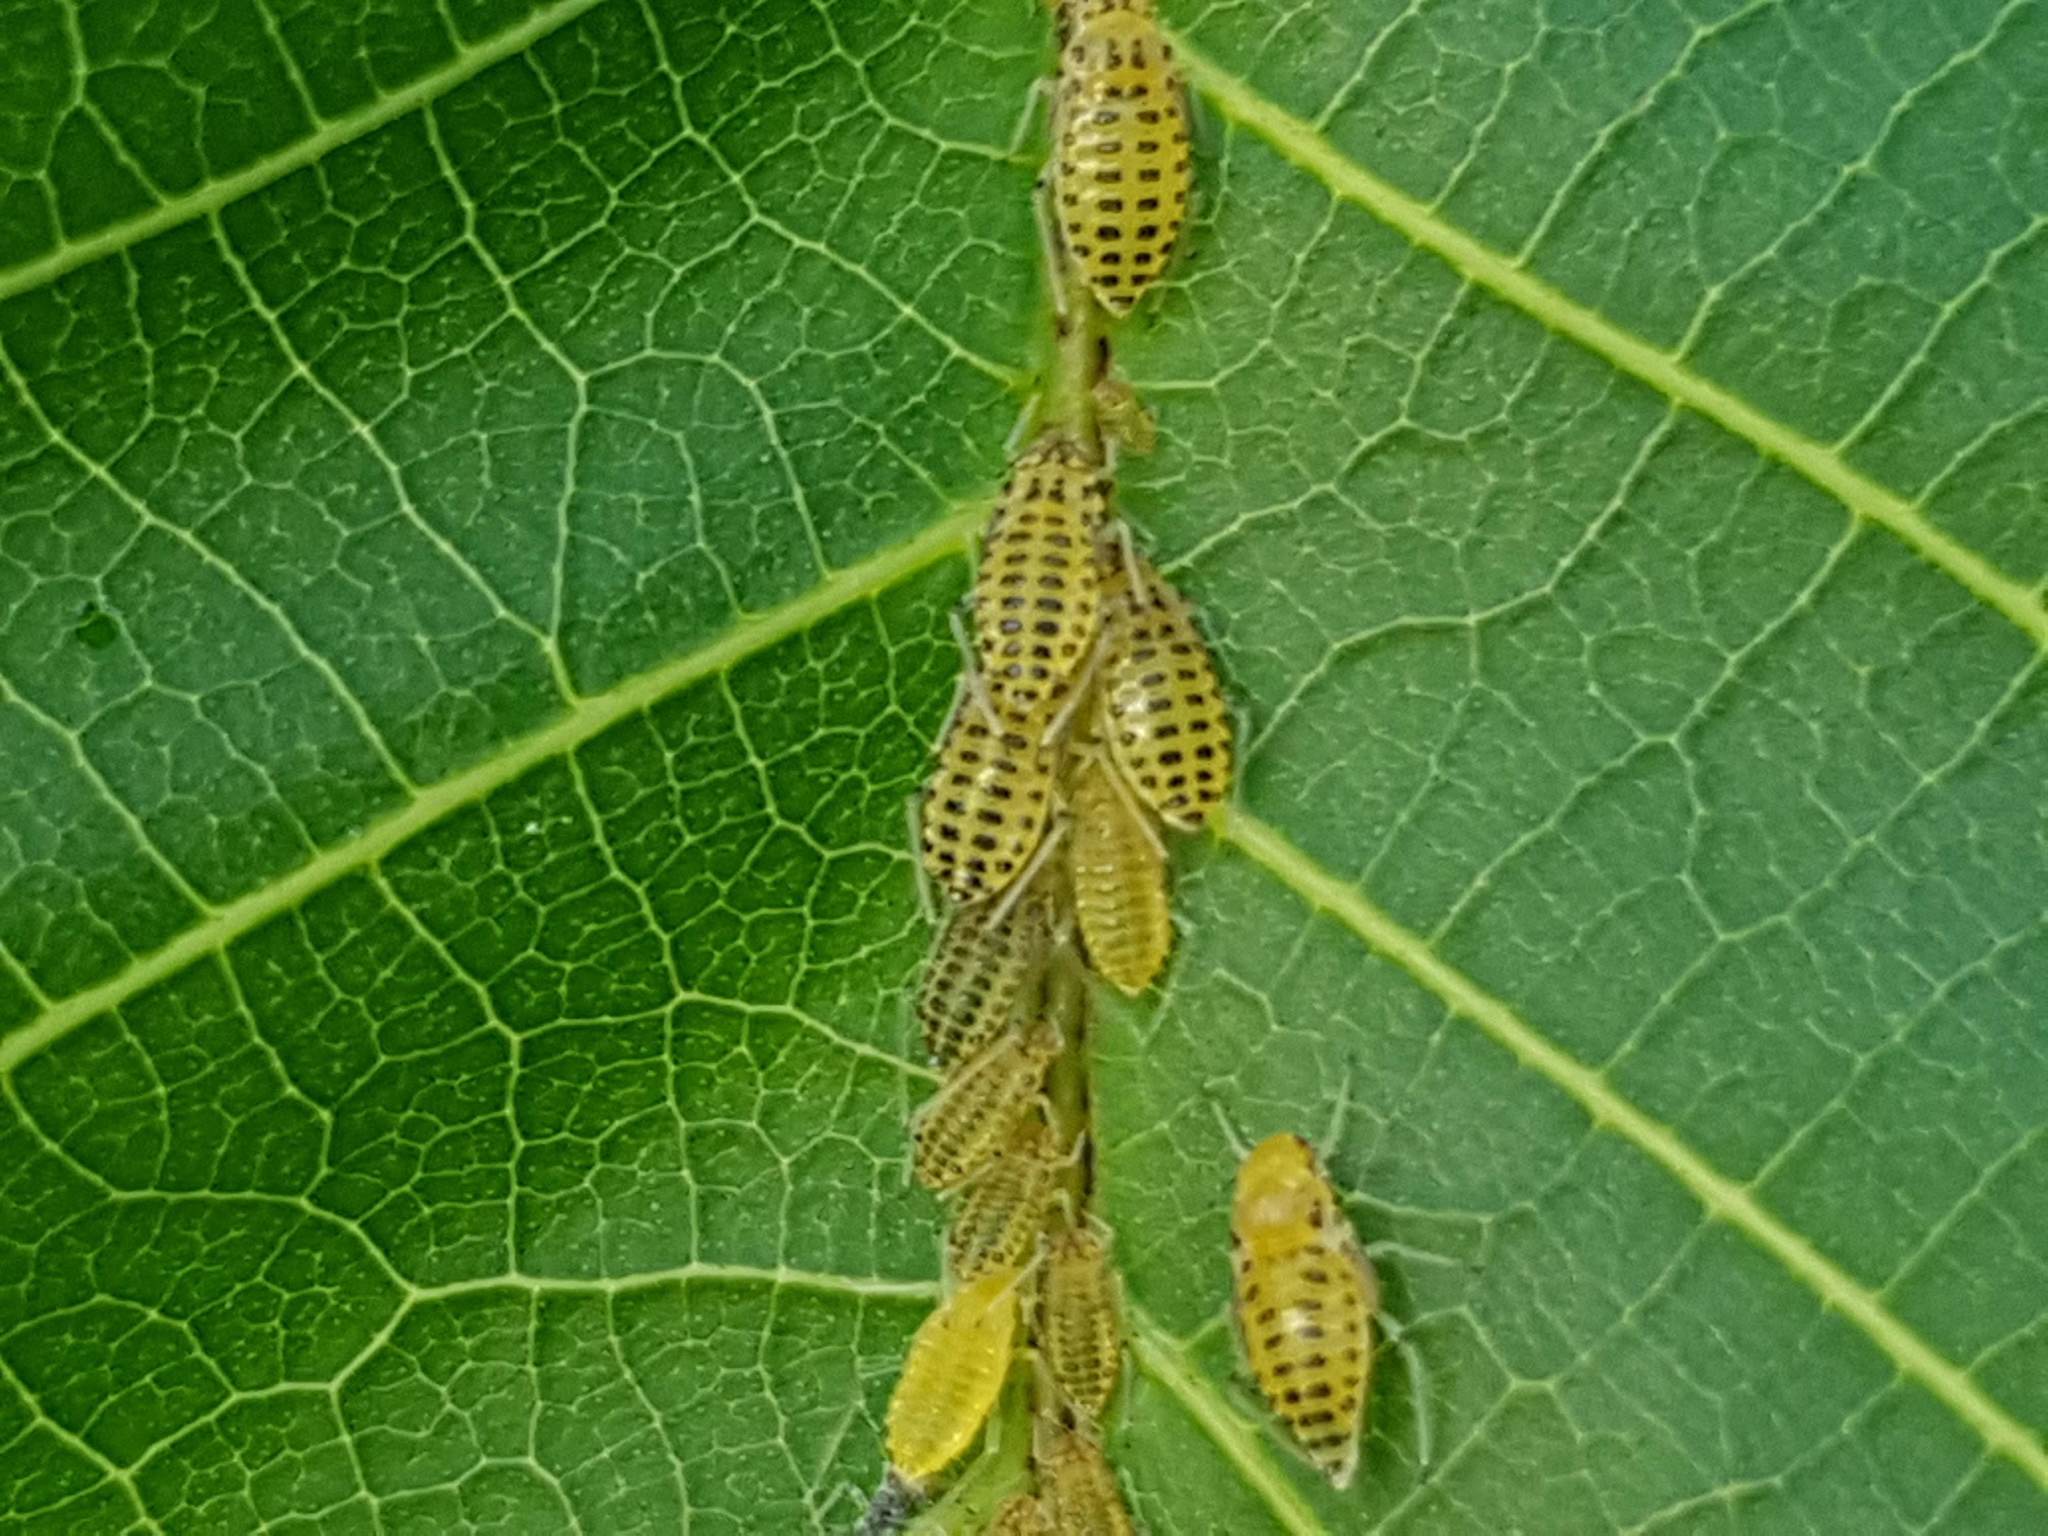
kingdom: Animalia
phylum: Arthropoda
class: Insecta
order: Hemiptera
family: Aphididae
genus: Panaphis
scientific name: Panaphis juglandis
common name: Large walnut aphid
